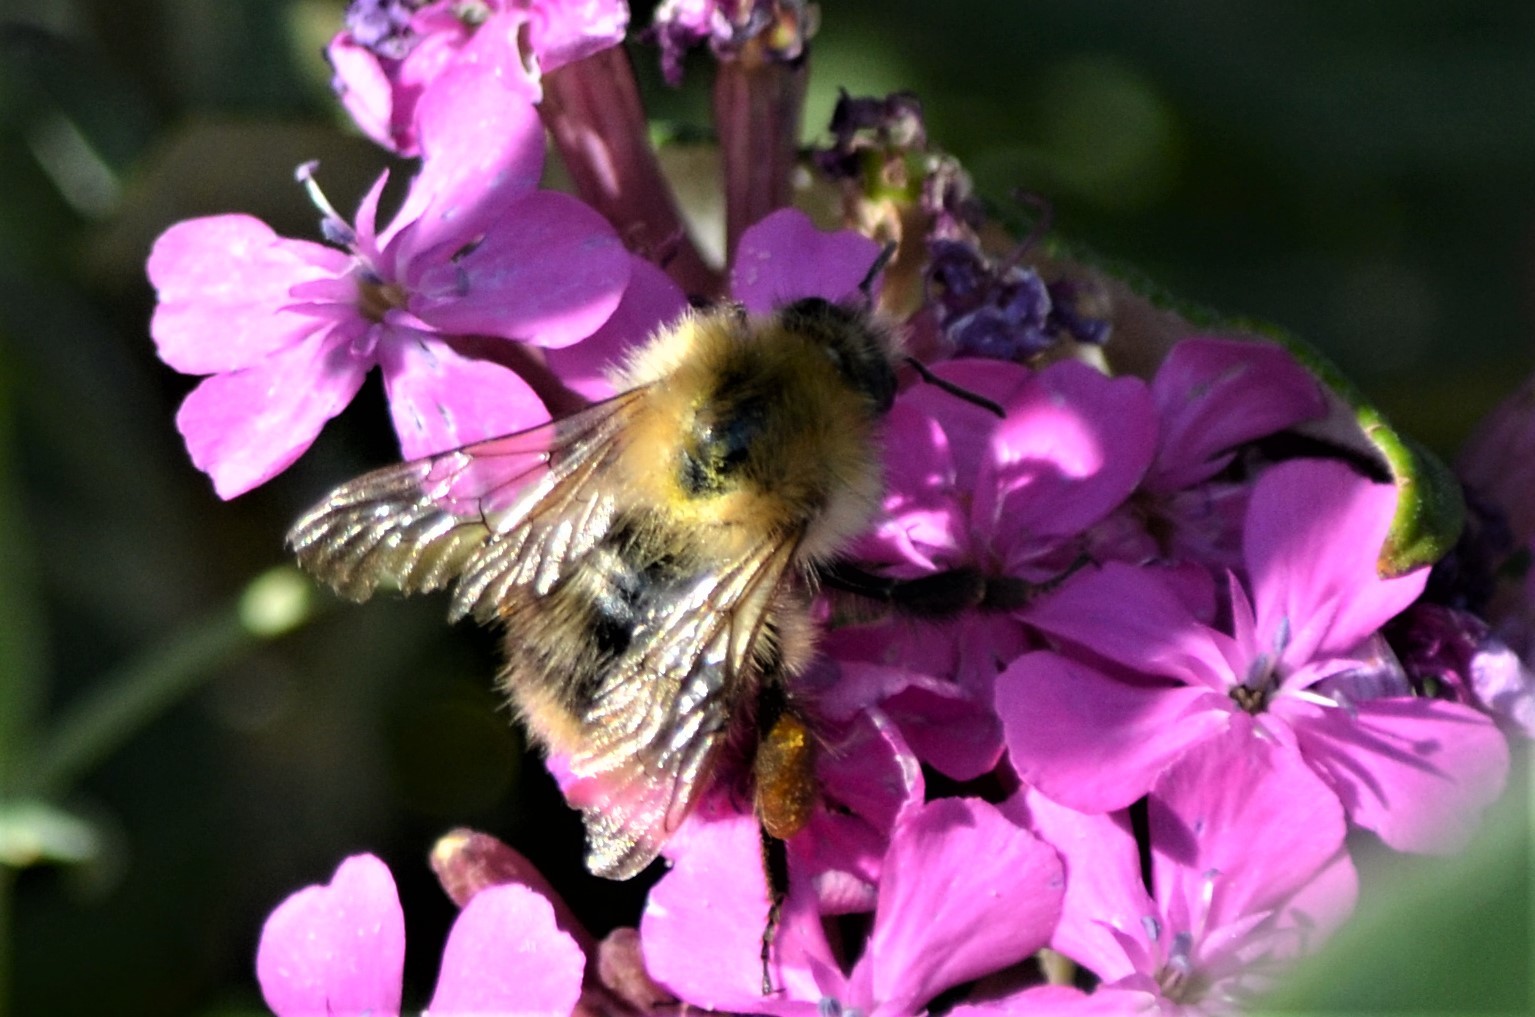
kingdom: Animalia
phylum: Arthropoda
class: Insecta
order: Hymenoptera
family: Apidae
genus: Bombus
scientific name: Bombus pascuorum
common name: Common carder bee
